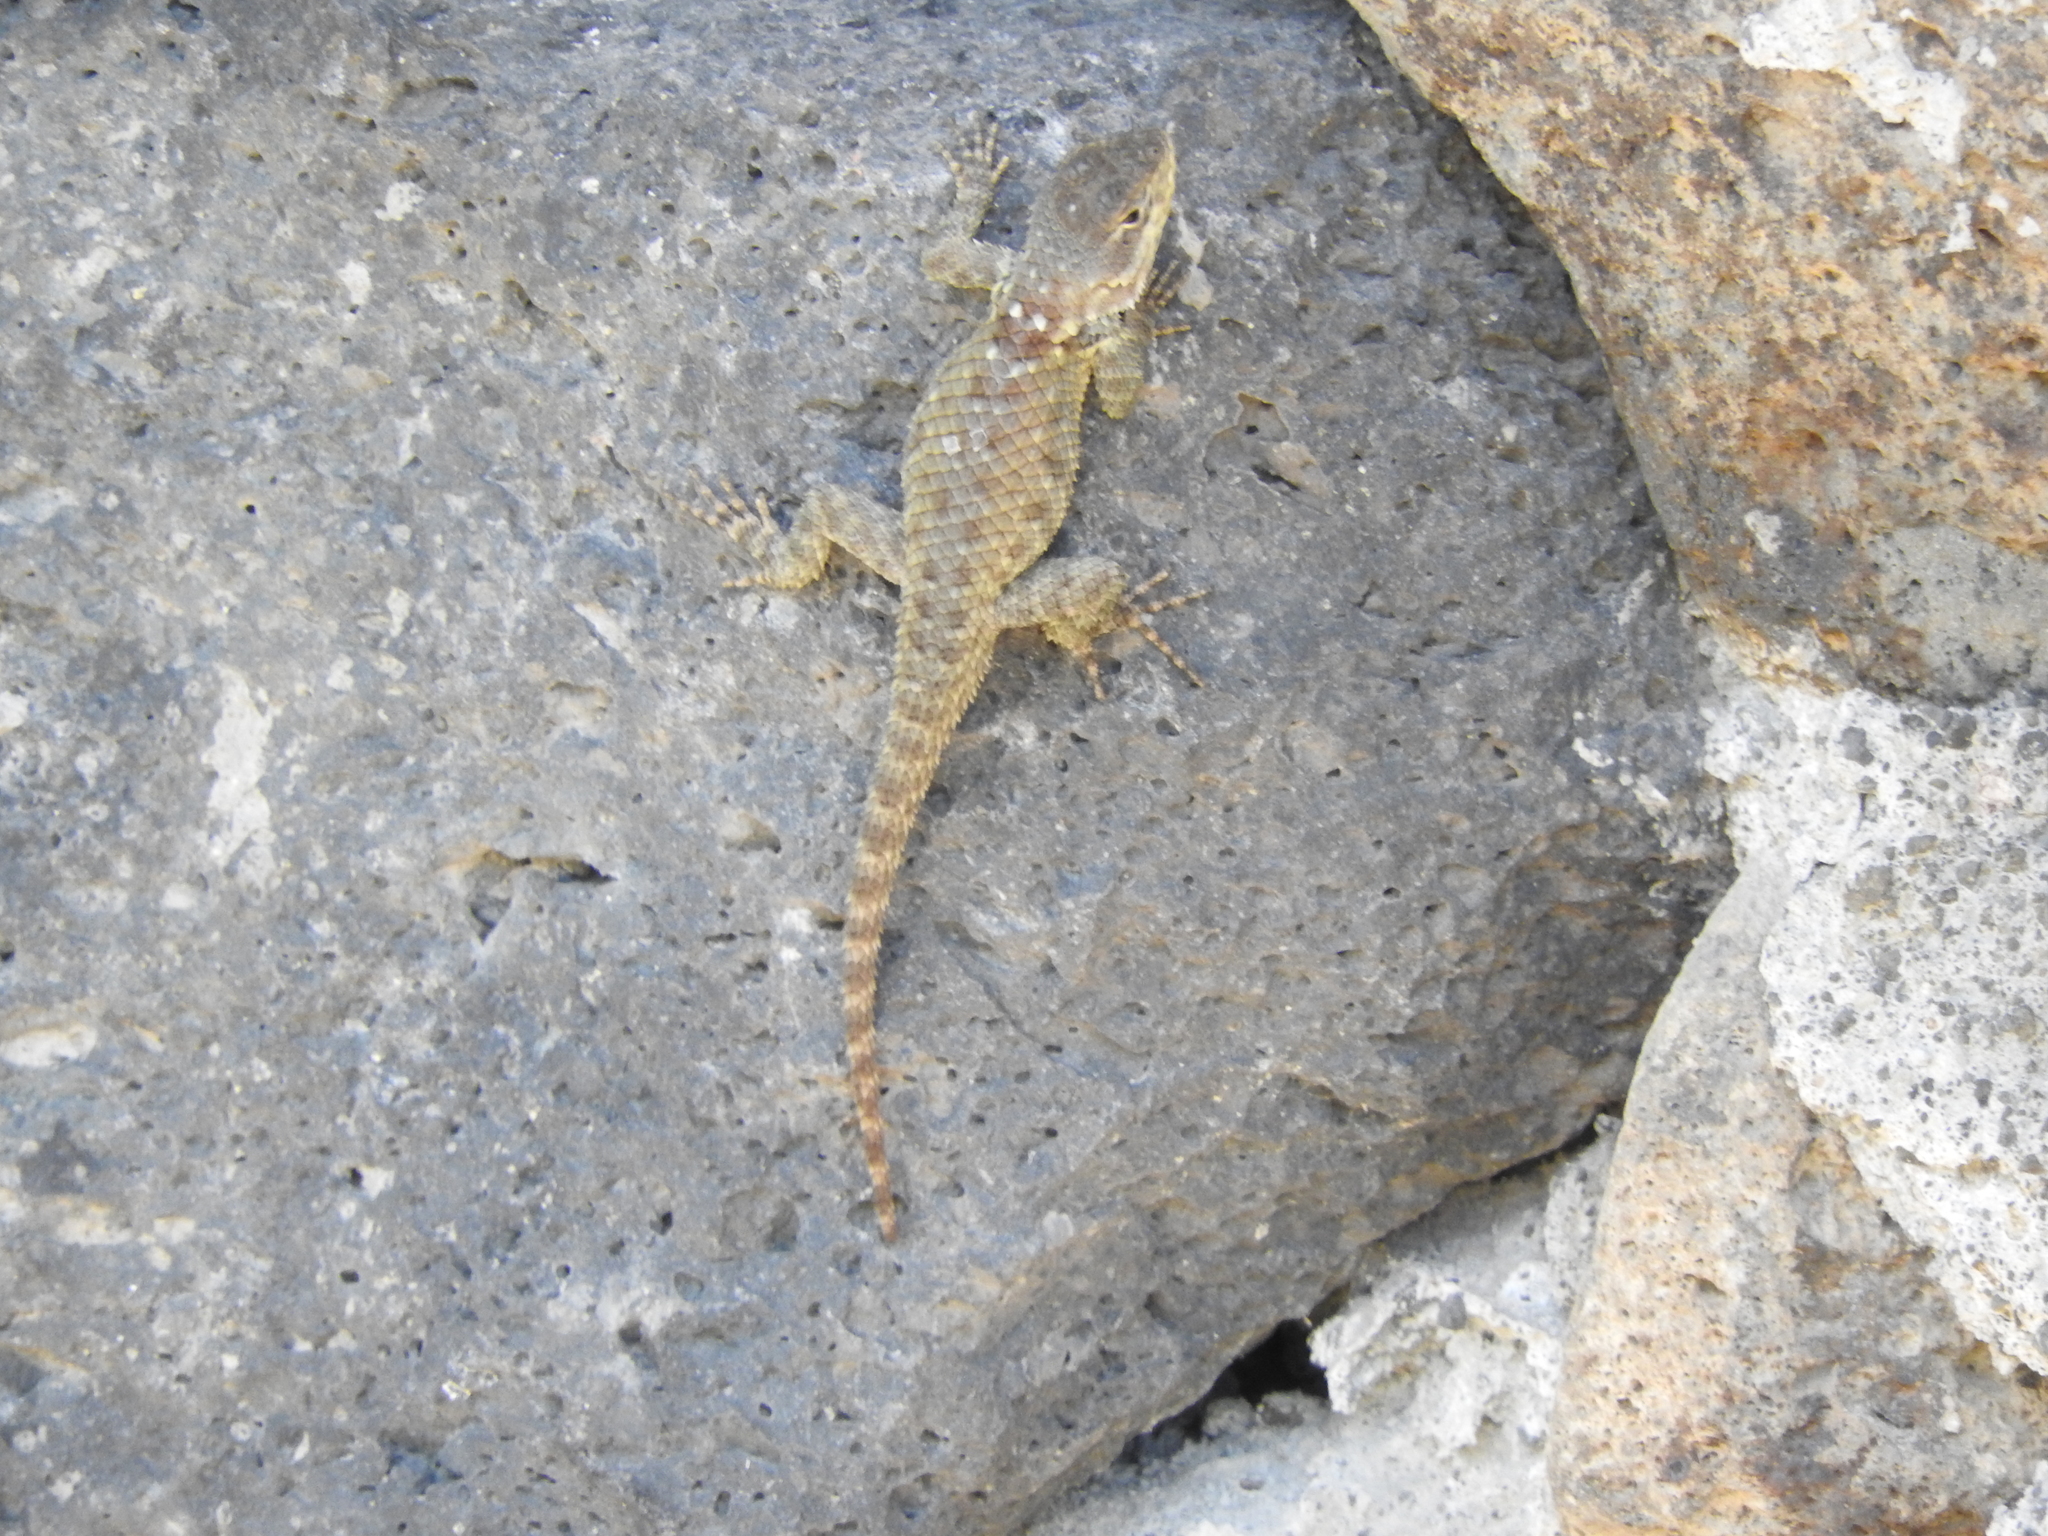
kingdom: Animalia
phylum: Chordata
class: Squamata
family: Phrynosomatidae
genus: Sceloporus
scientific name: Sceloporus torquatus
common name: Central plateau torquate lizard [melanogaster]
